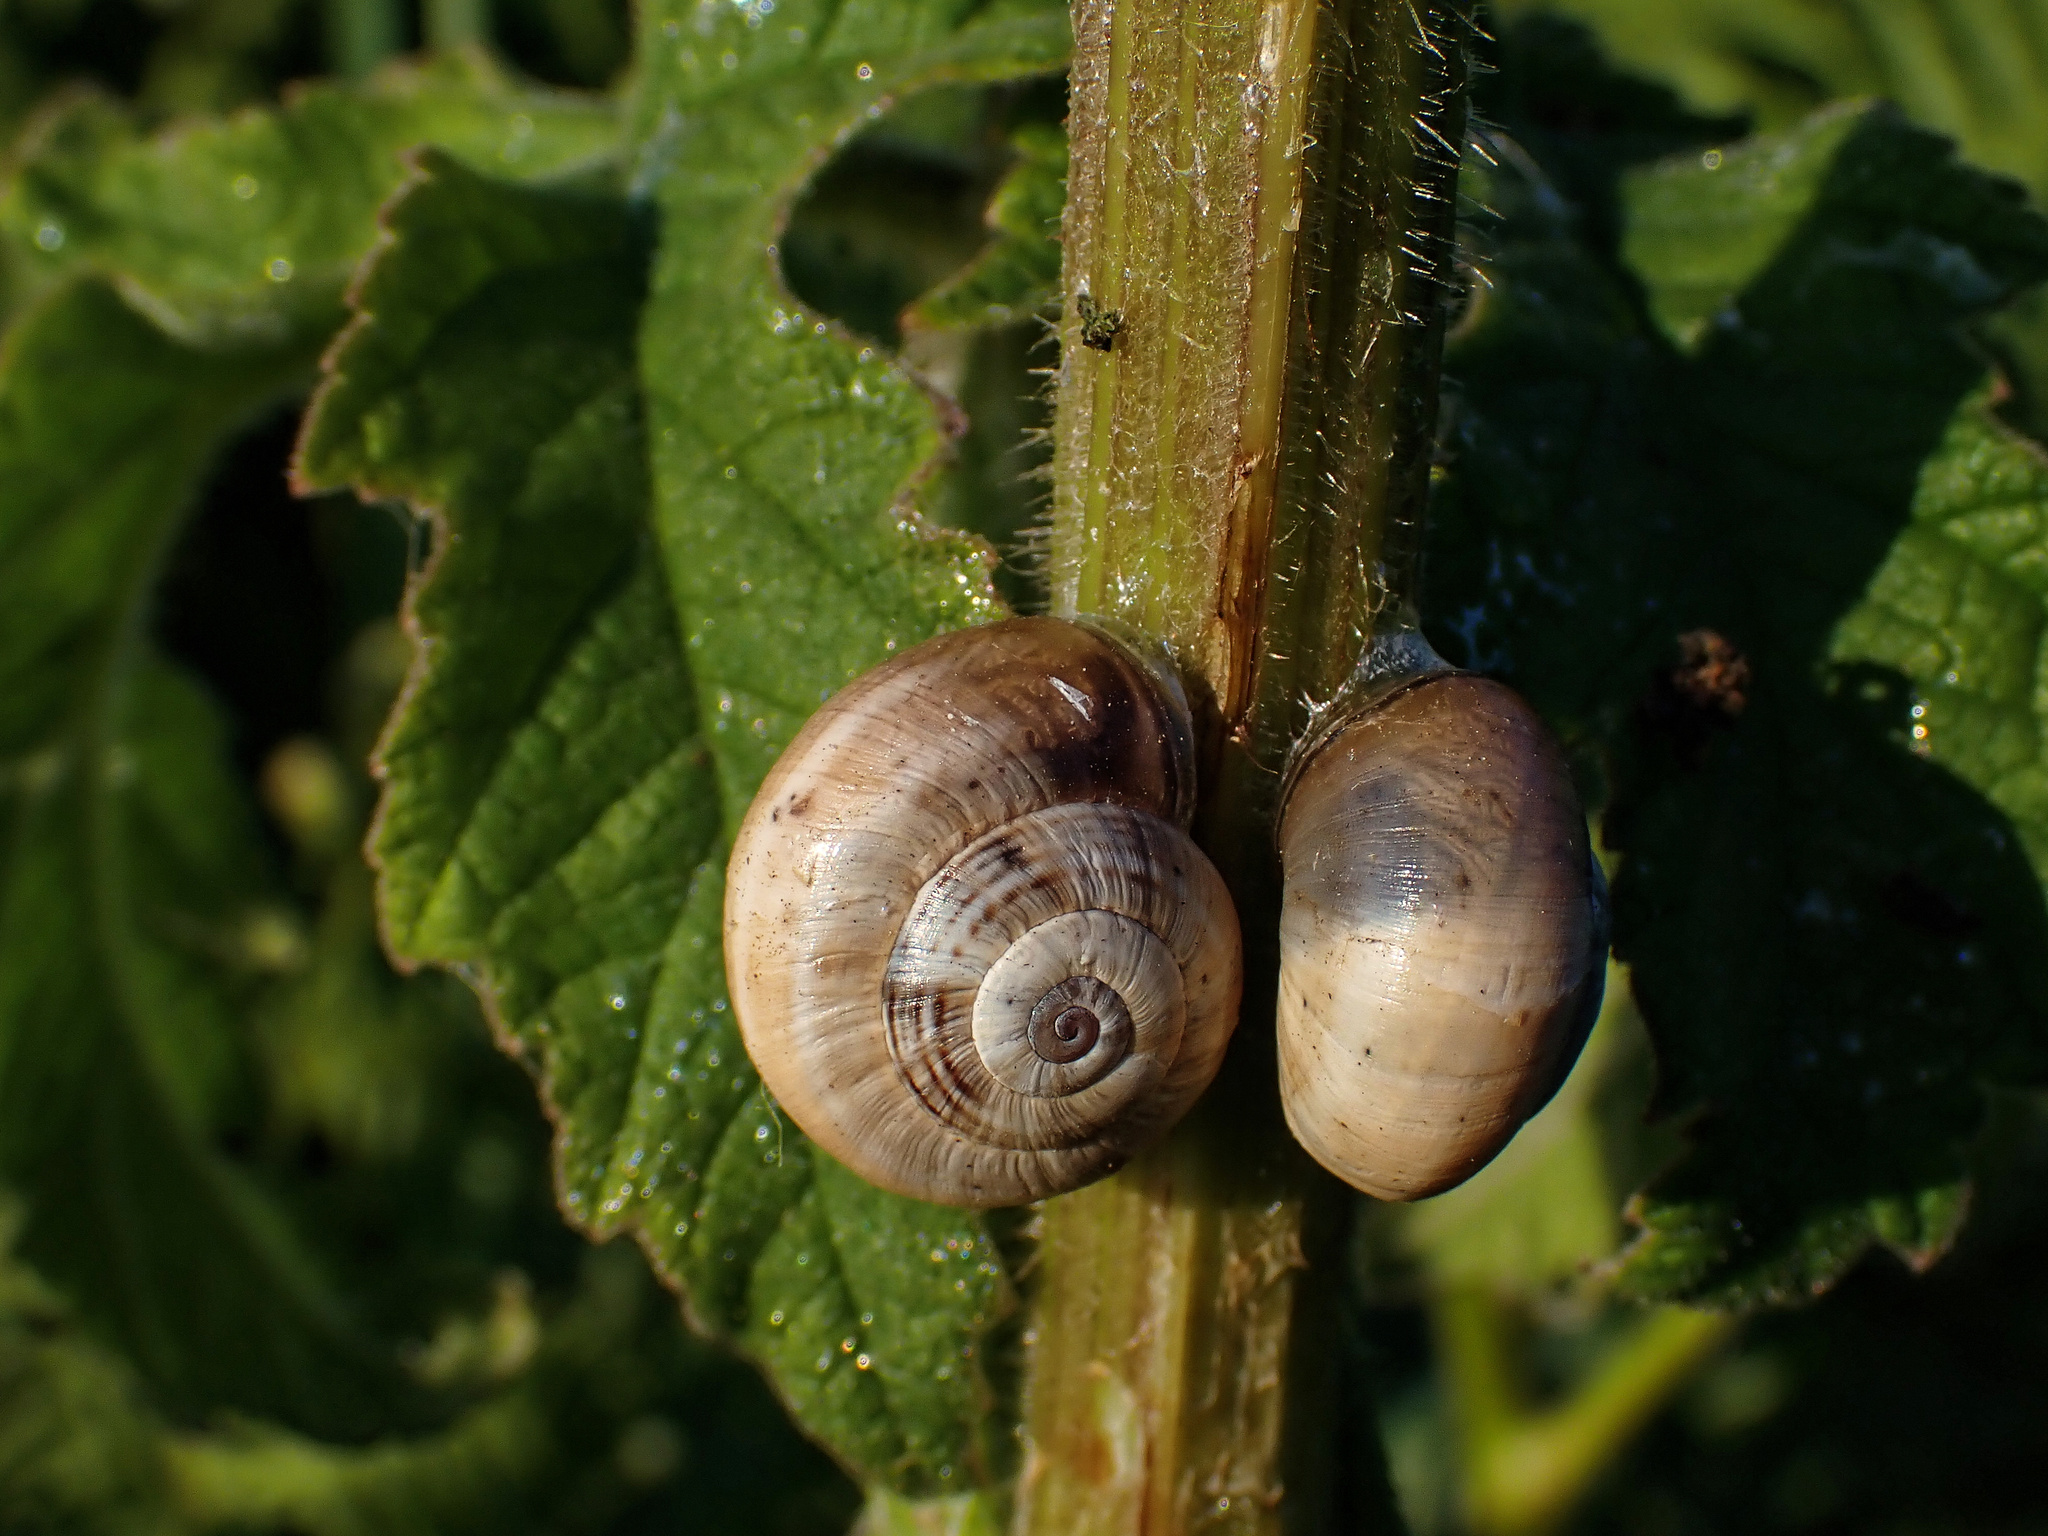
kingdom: Animalia
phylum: Mollusca
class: Gastropoda
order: Stylommatophora
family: Helicidae
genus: Theba
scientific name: Theba pisana
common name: White snail
